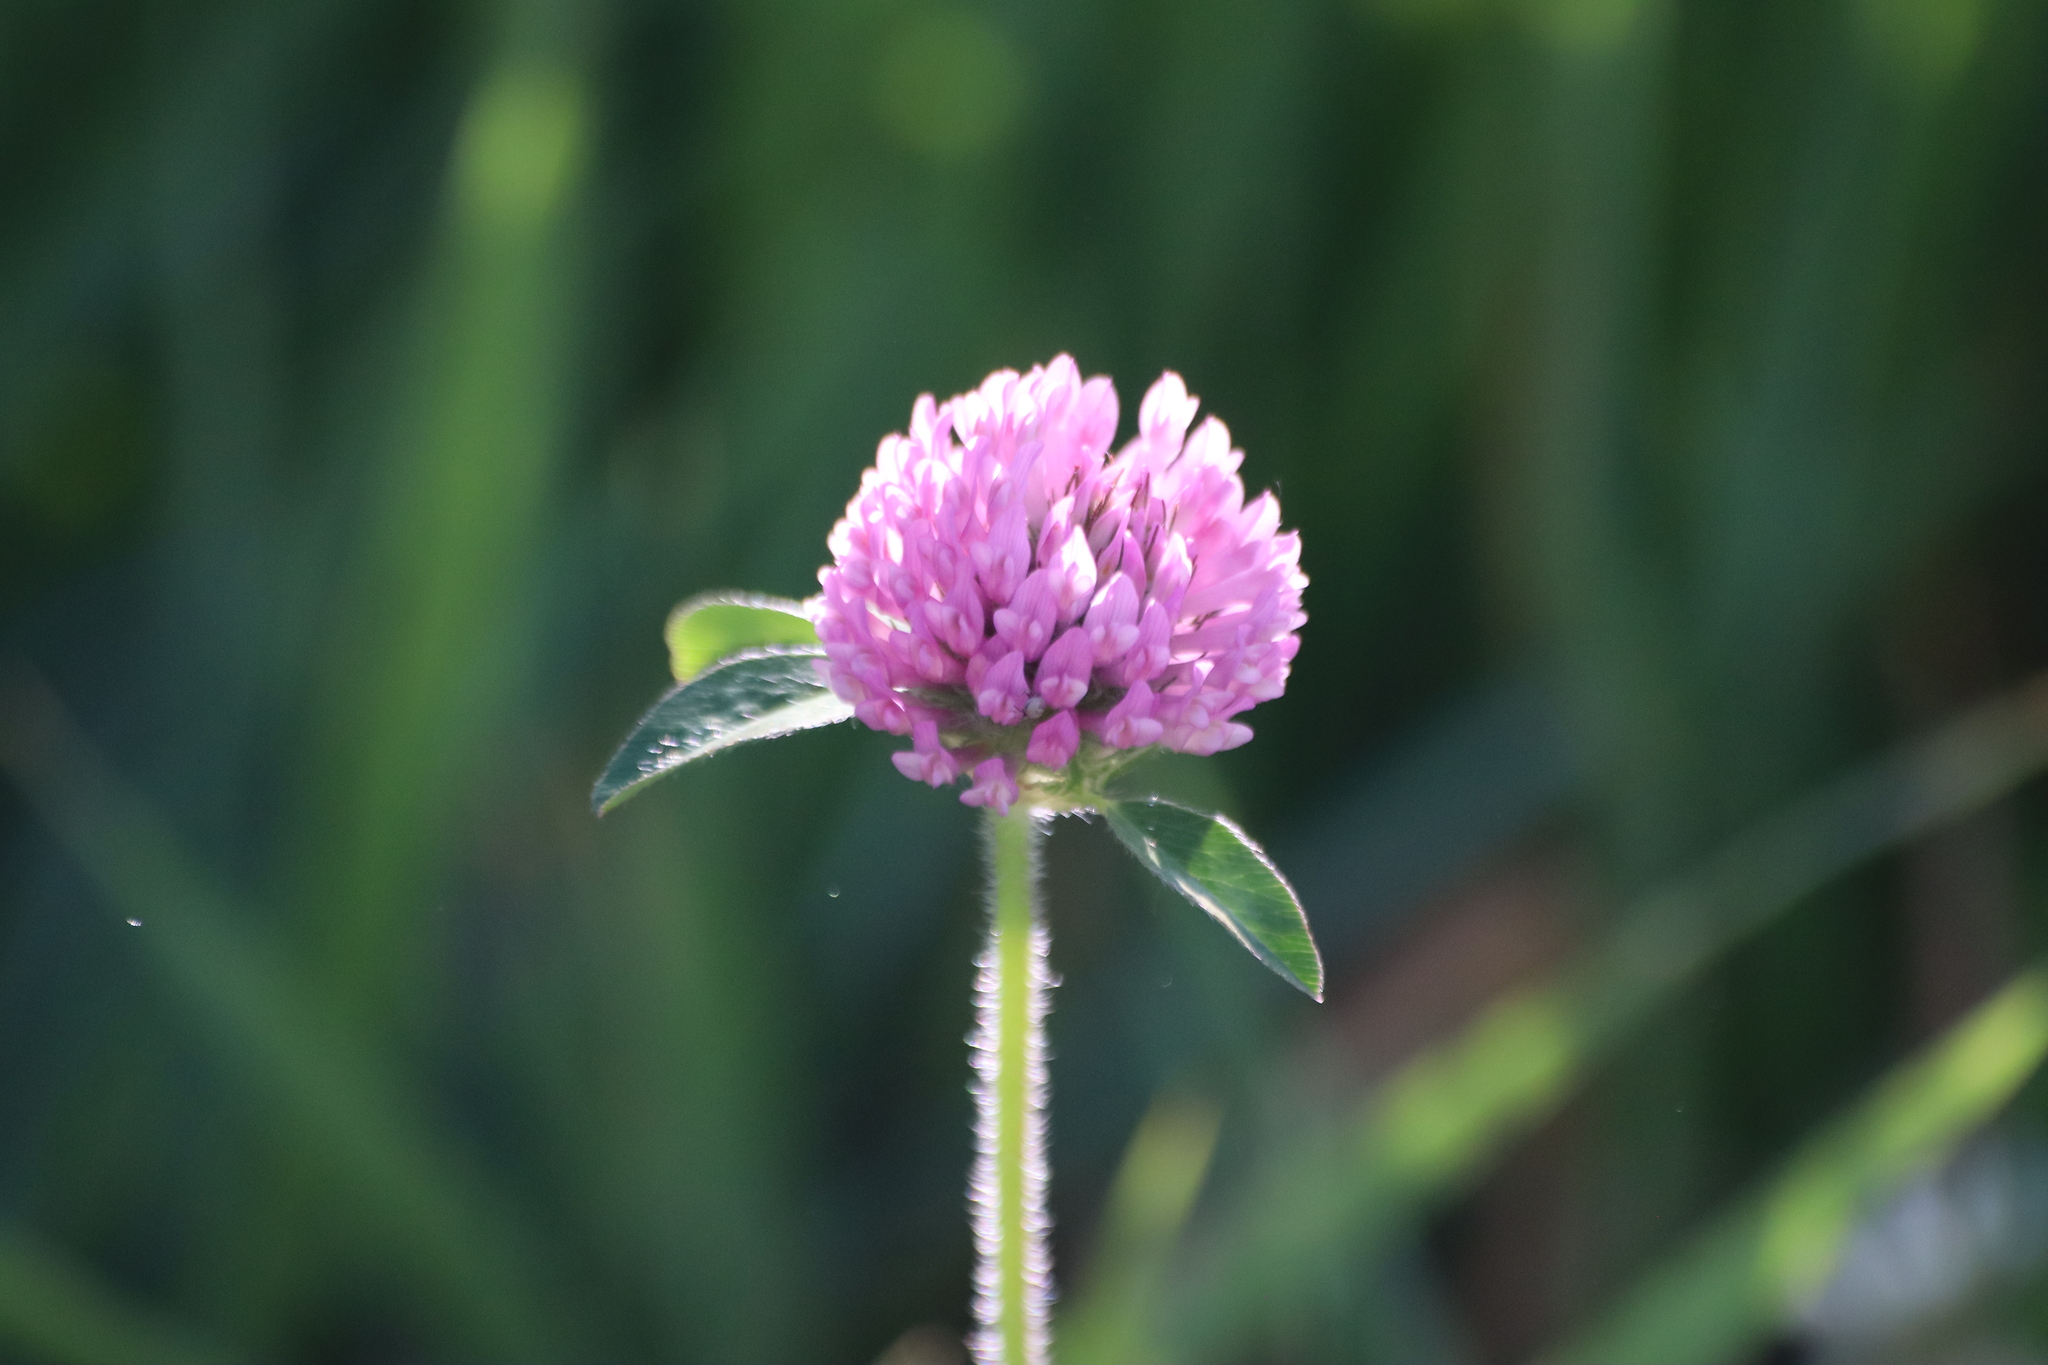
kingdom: Plantae
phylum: Tracheophyta
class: Magnoliopsida
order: Fabales
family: Fabaceae
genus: Trifolium
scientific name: Trifolium pratense
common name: Red clover
